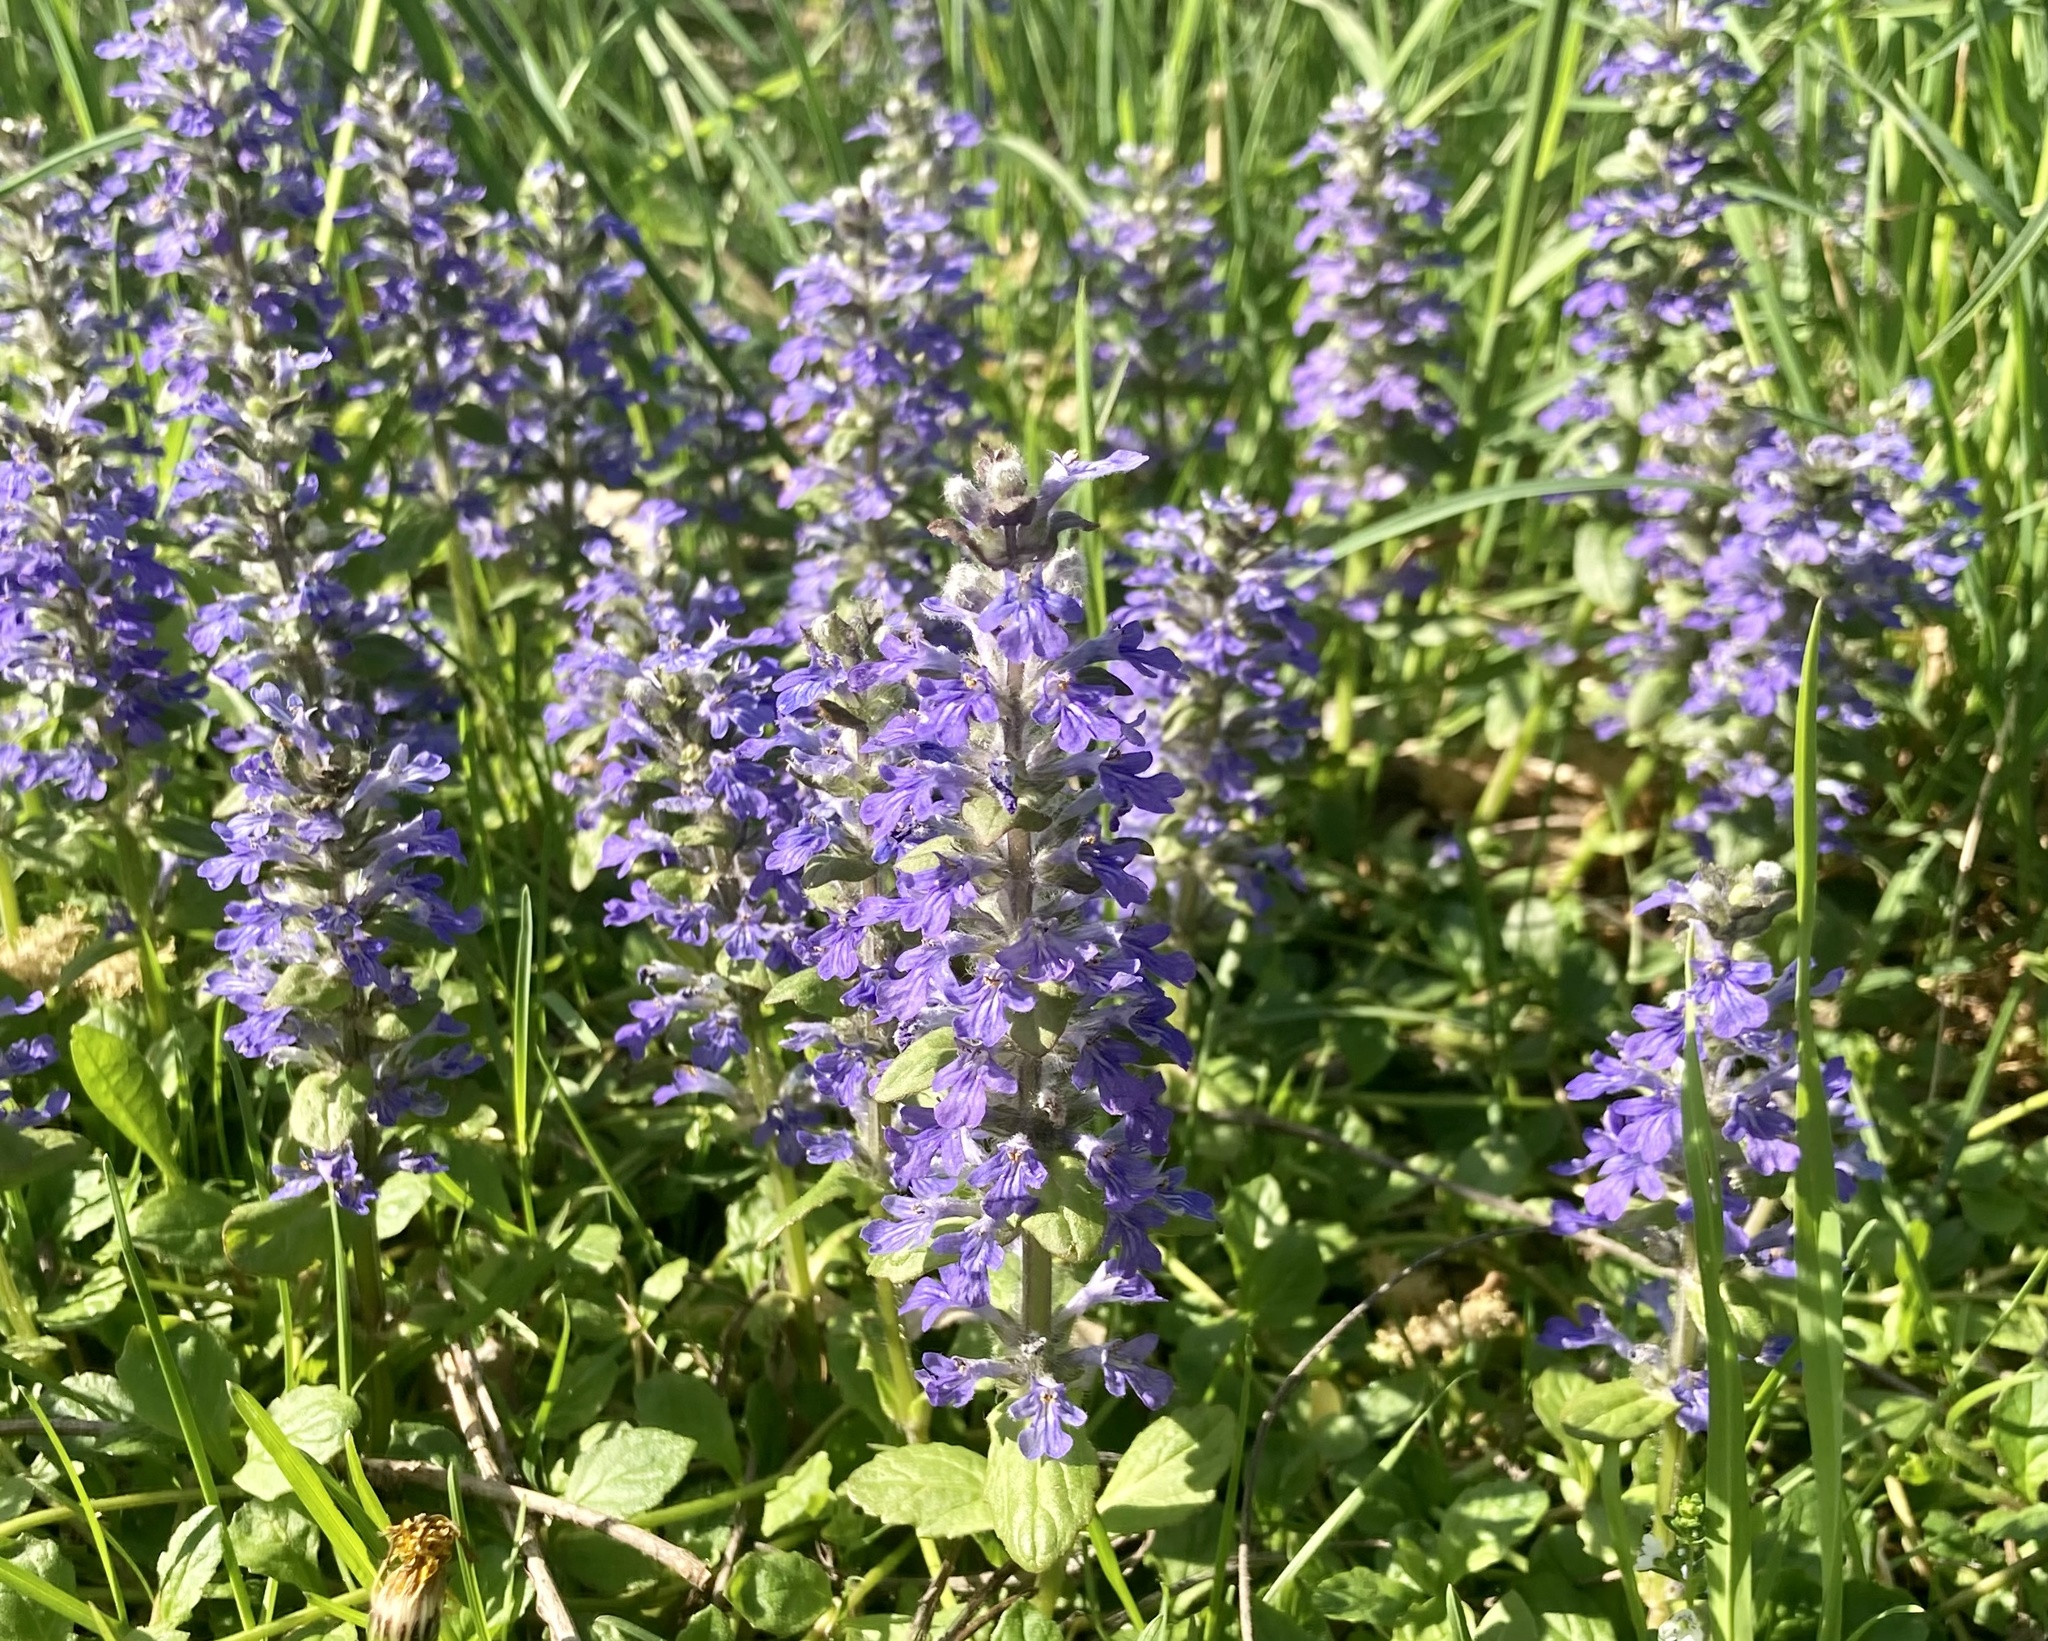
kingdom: Plantae
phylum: Tracheophyta
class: Magnoliopsida
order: Lamiales
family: Lamiaceae
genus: Ajuga
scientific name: Ajuga reptans
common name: Bugle
